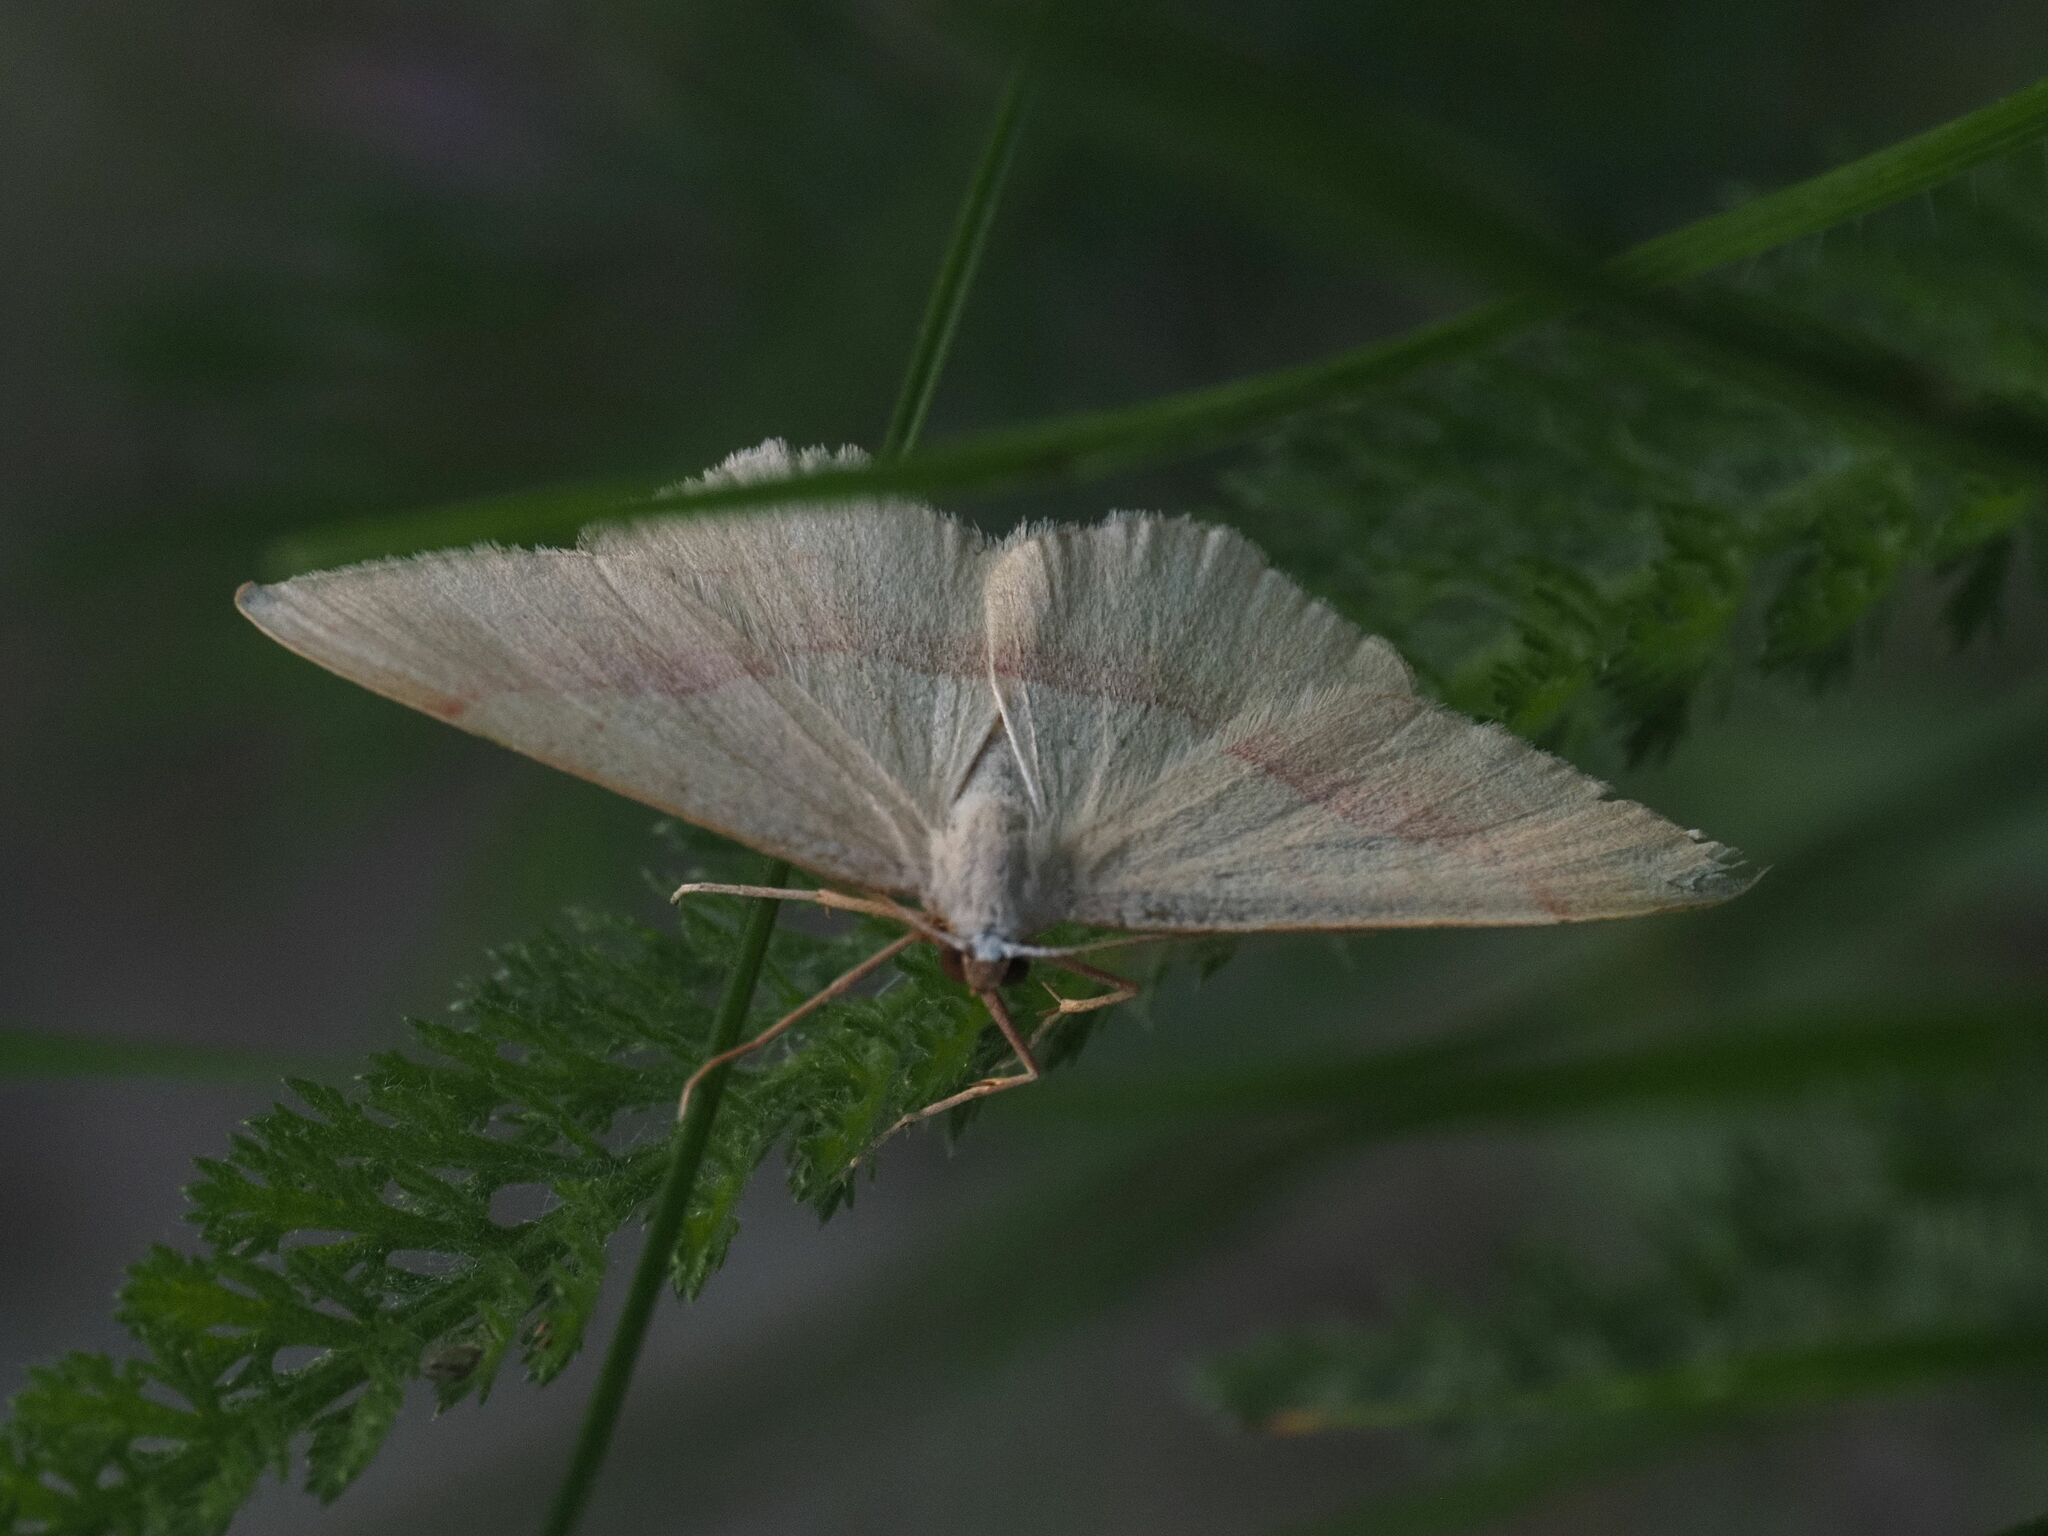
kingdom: Animalia
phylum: Arthropoda
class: Insecta
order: Lepidoptera
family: Geometridae
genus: Rhodostrophia
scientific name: Rhodostrophia vibicaria
